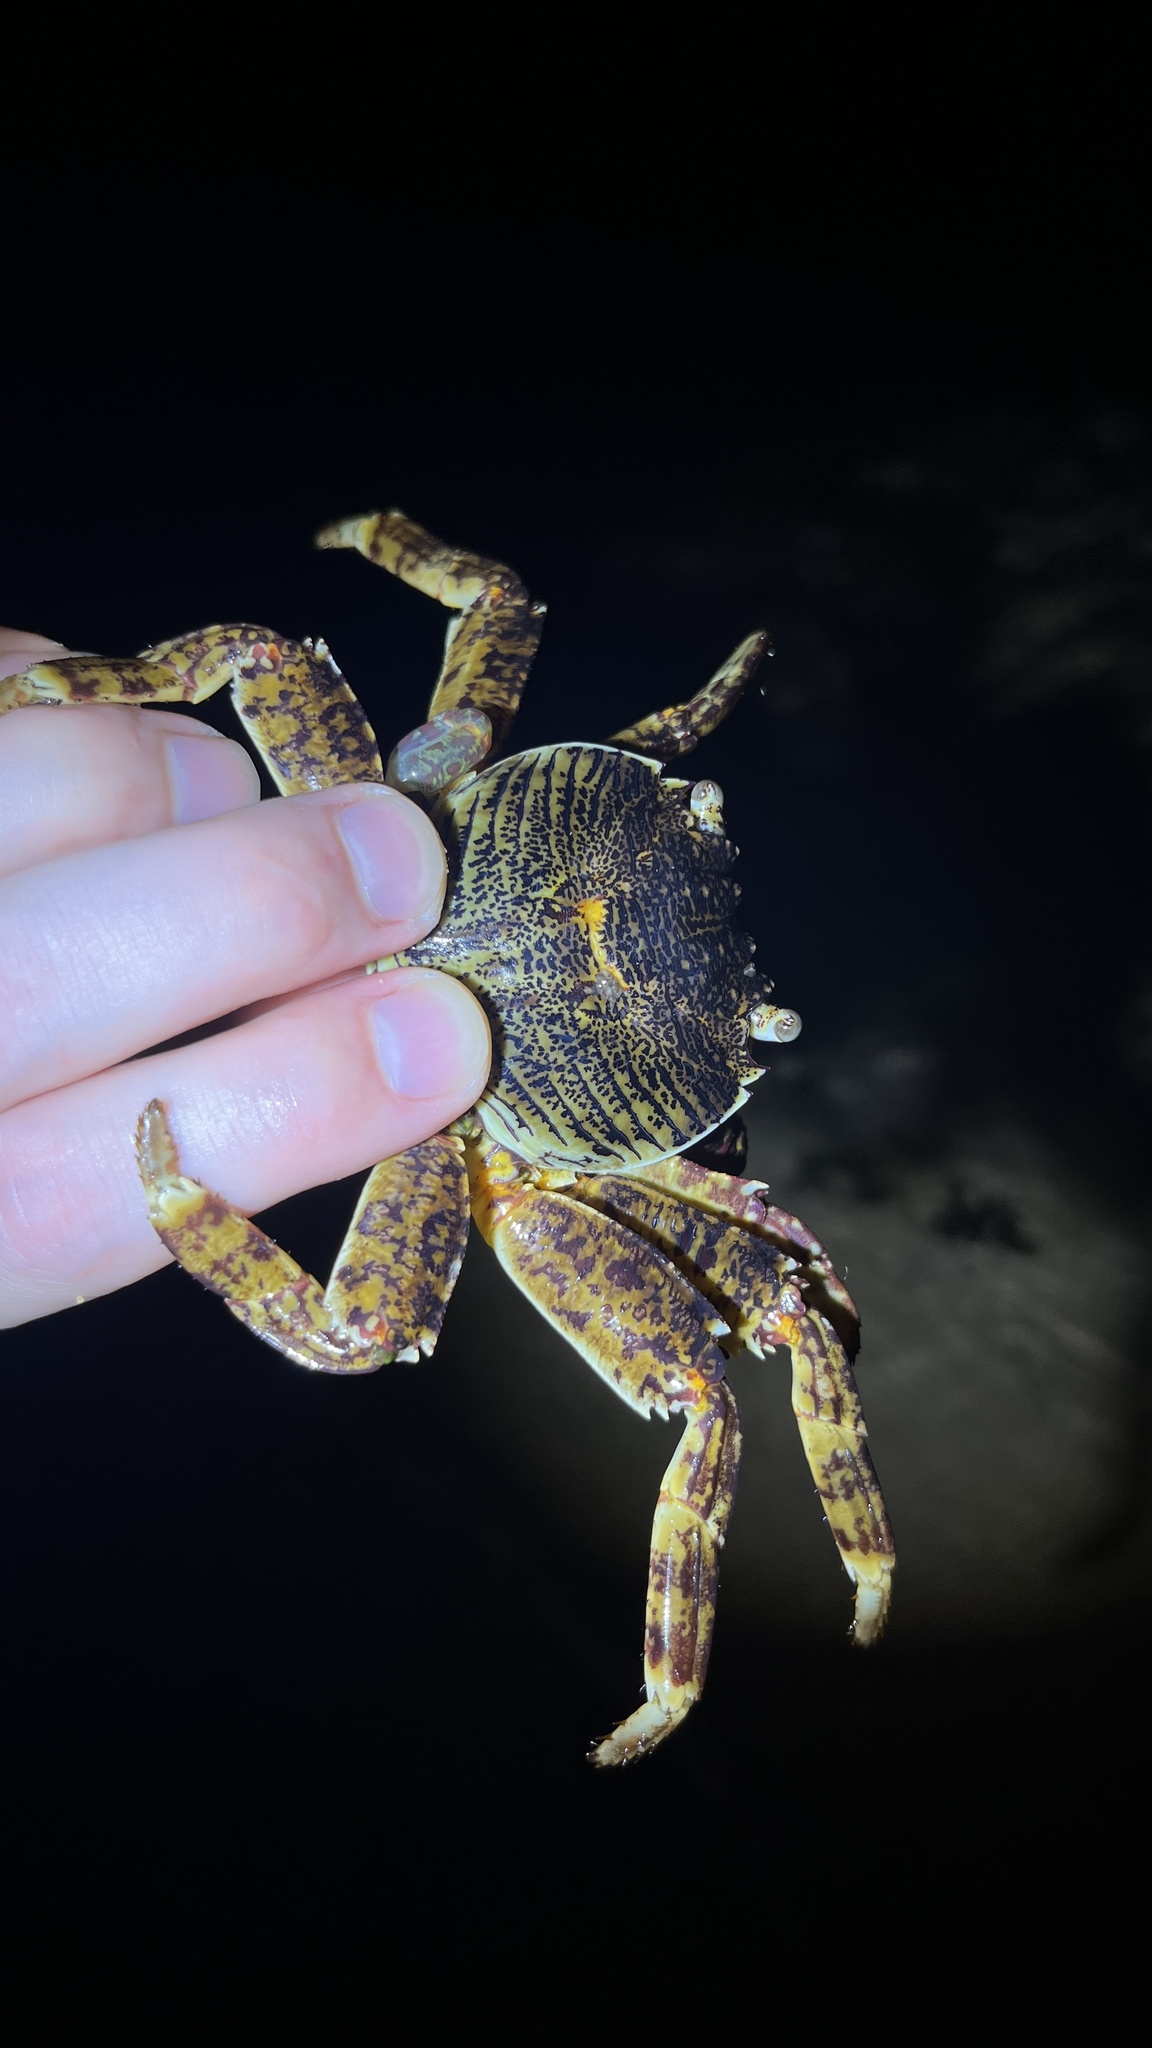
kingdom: Animalia
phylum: Arthropoda
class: Malacostraca
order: Decapoda
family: Grapsidae
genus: Grapsus
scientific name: Grapsus albolineatus
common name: Mottled lightfoot crab
